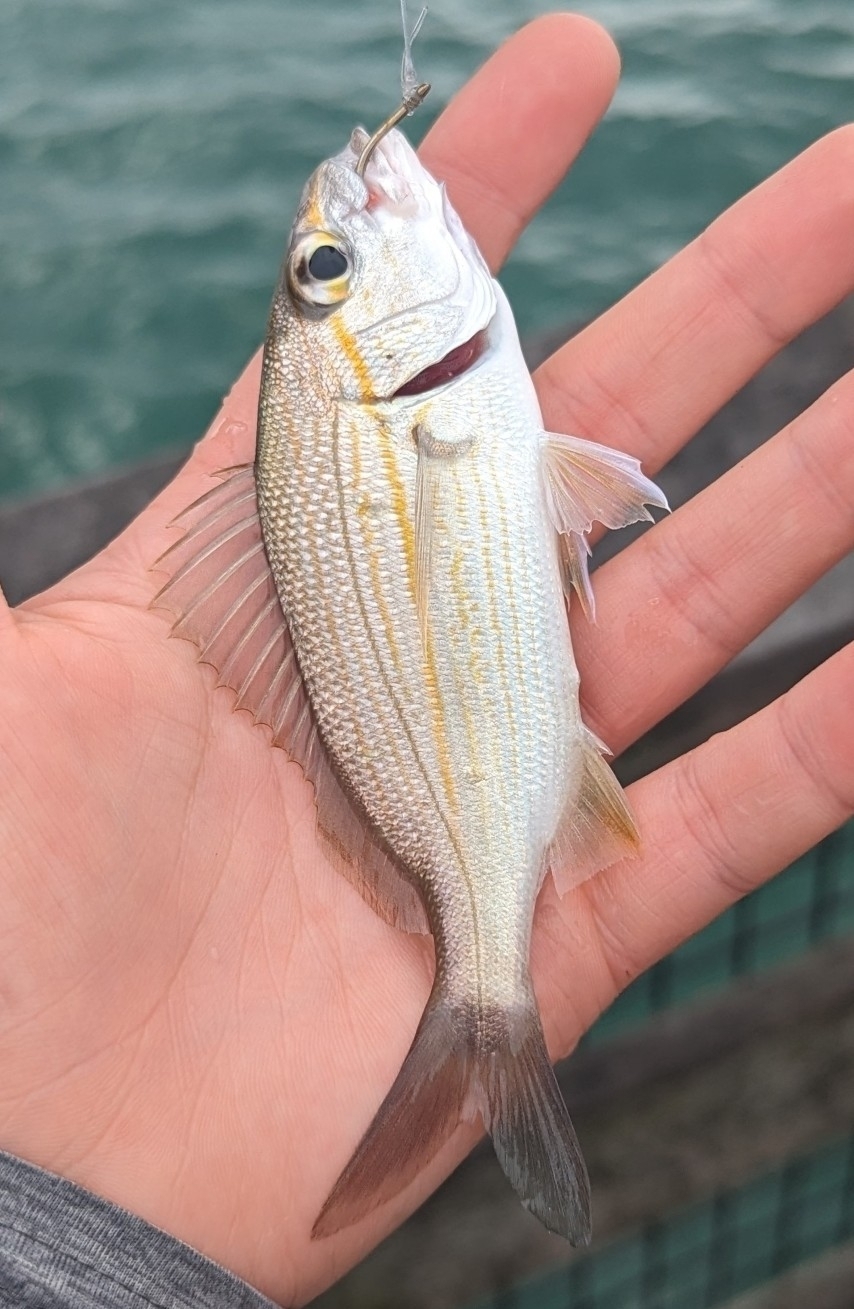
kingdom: Animalia
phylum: Chordata
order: Perciformes
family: Haemulidae
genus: Haemulon
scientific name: Haemulon aurolineatum
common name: Tomtate
